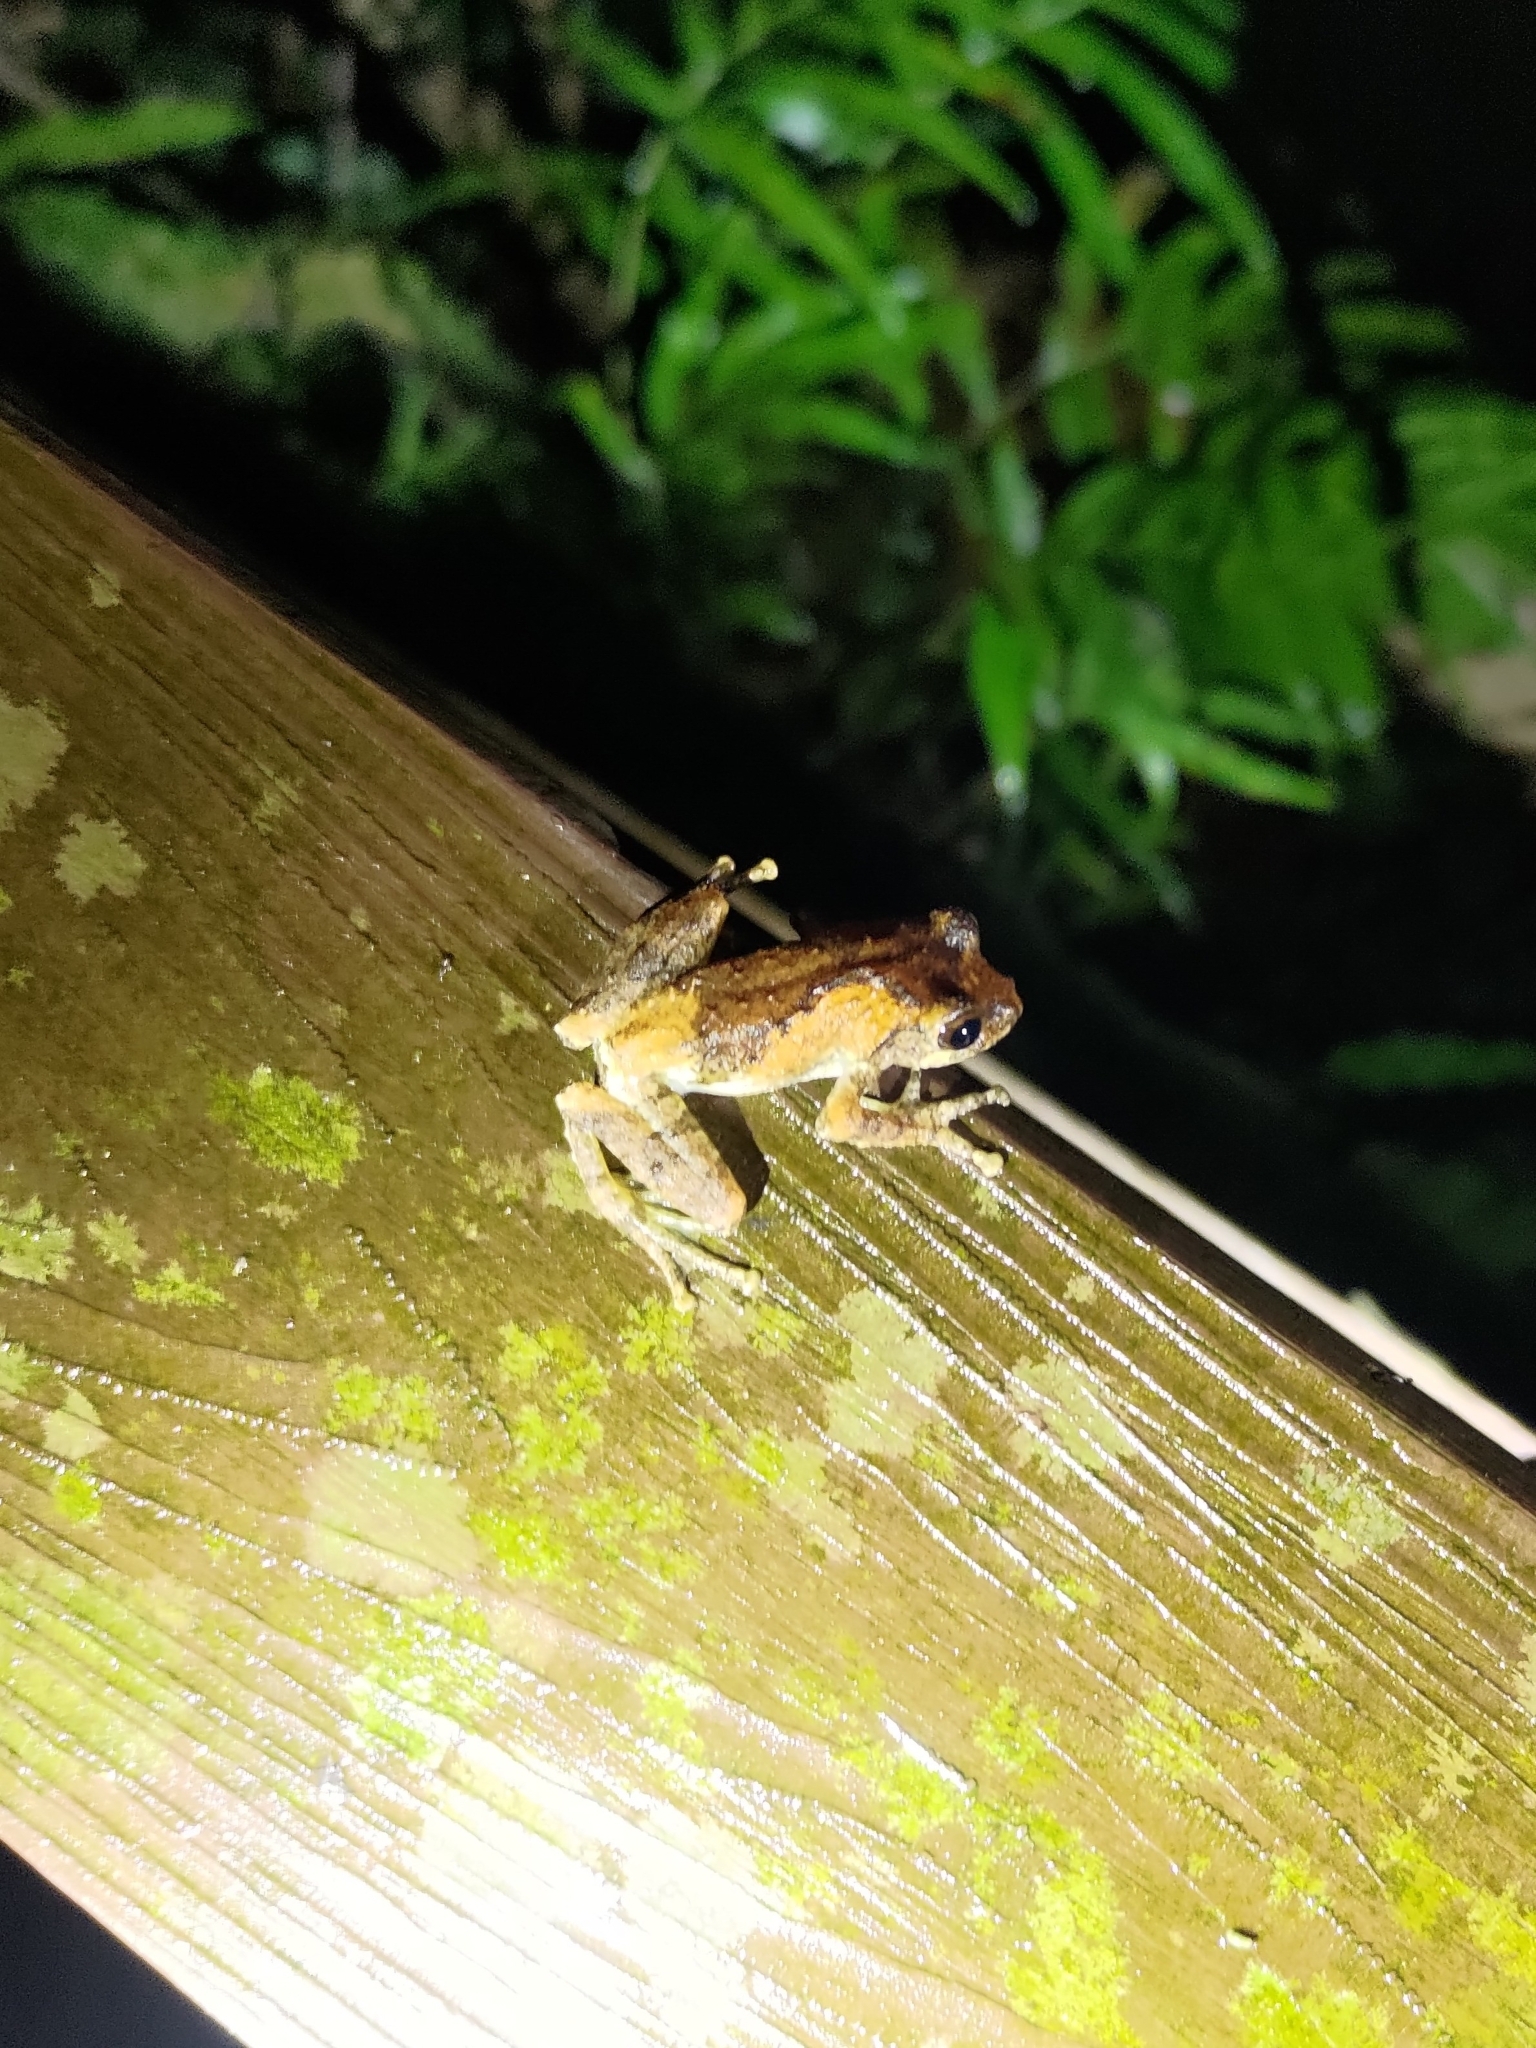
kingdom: Animalia
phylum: Chordata
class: Amphibia
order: Anura
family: Rhacophoridae
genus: Kurixalus
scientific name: Kurixalus idiootocus
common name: Temple treefrog
